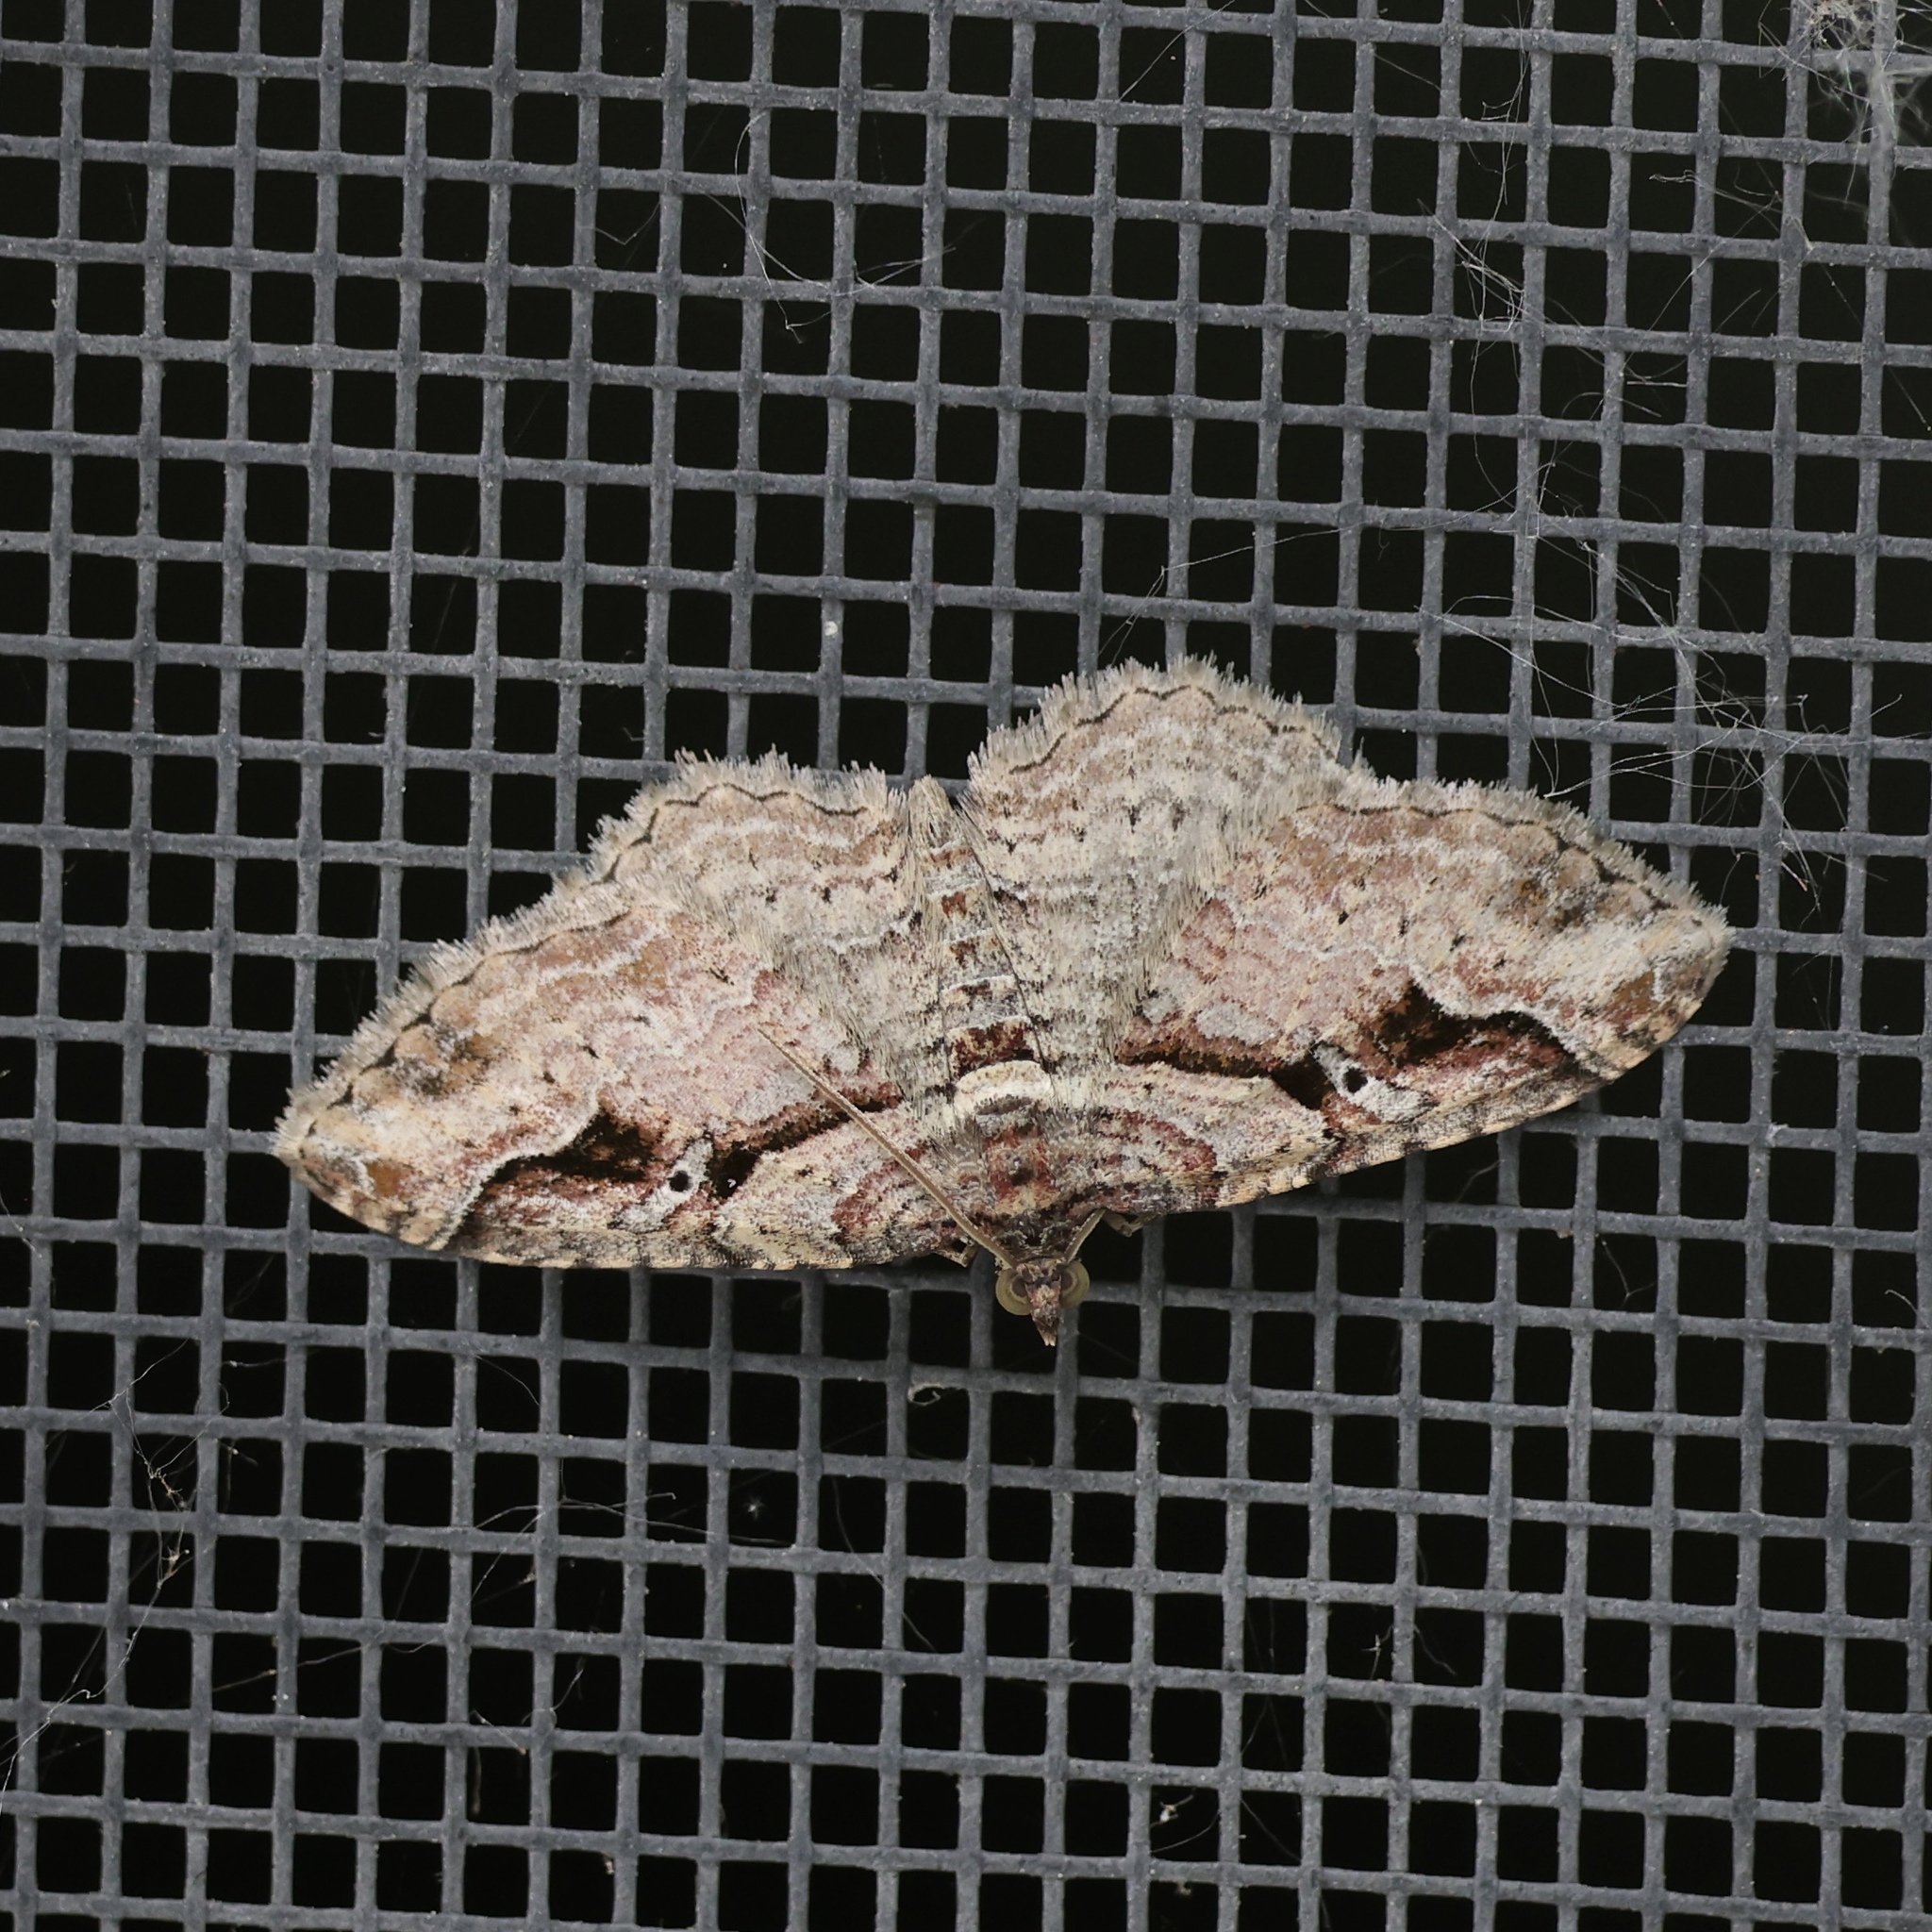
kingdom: Animalia
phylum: Arthropoda
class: Insecta
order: Lepidoptera
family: Geometridae
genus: Costaconvexa
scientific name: Costaconvexa centrostrigaria
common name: Bent-line carpet
